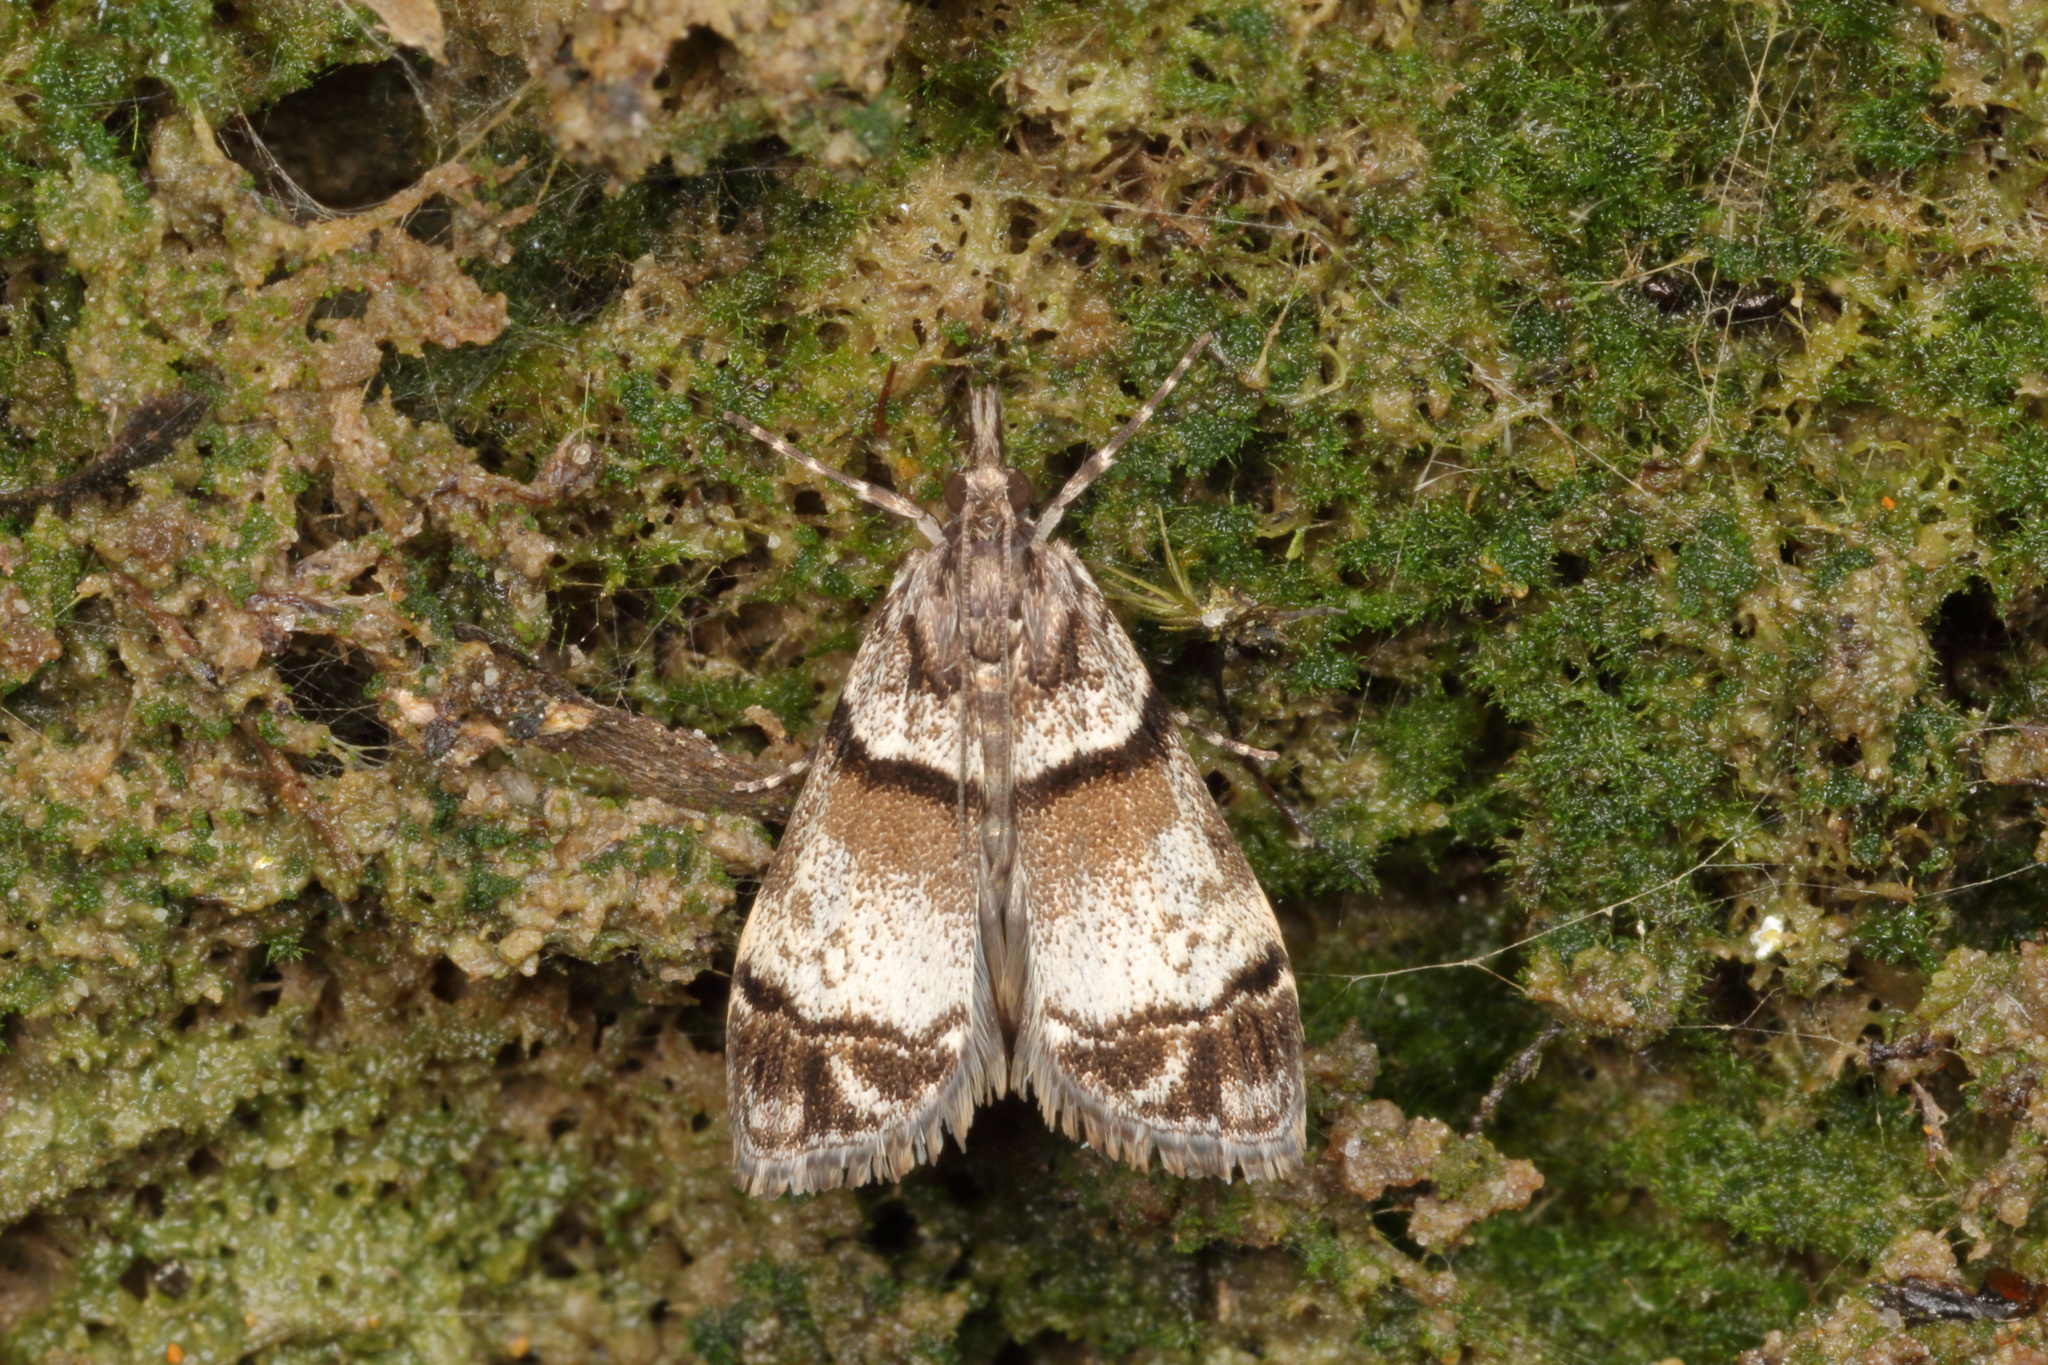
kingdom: Animalia
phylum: Arthropoda
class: Insecta
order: Lepidoptera
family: Crambidae
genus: Eudonia
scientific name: Eudonia choristis
